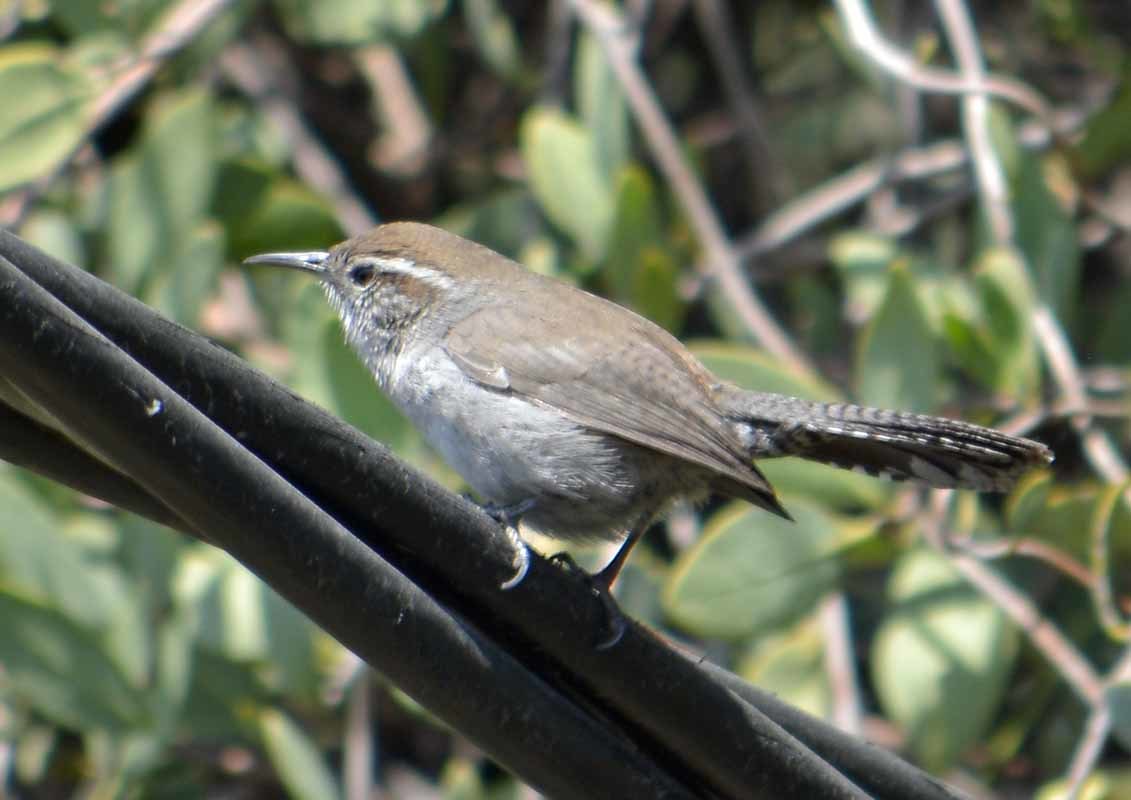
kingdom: Animalia
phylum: Chordata
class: Aves
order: Passeriformes
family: Troglodytidae
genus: Thryomanes
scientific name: Thryomanes bewickii
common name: Bewick's wren
